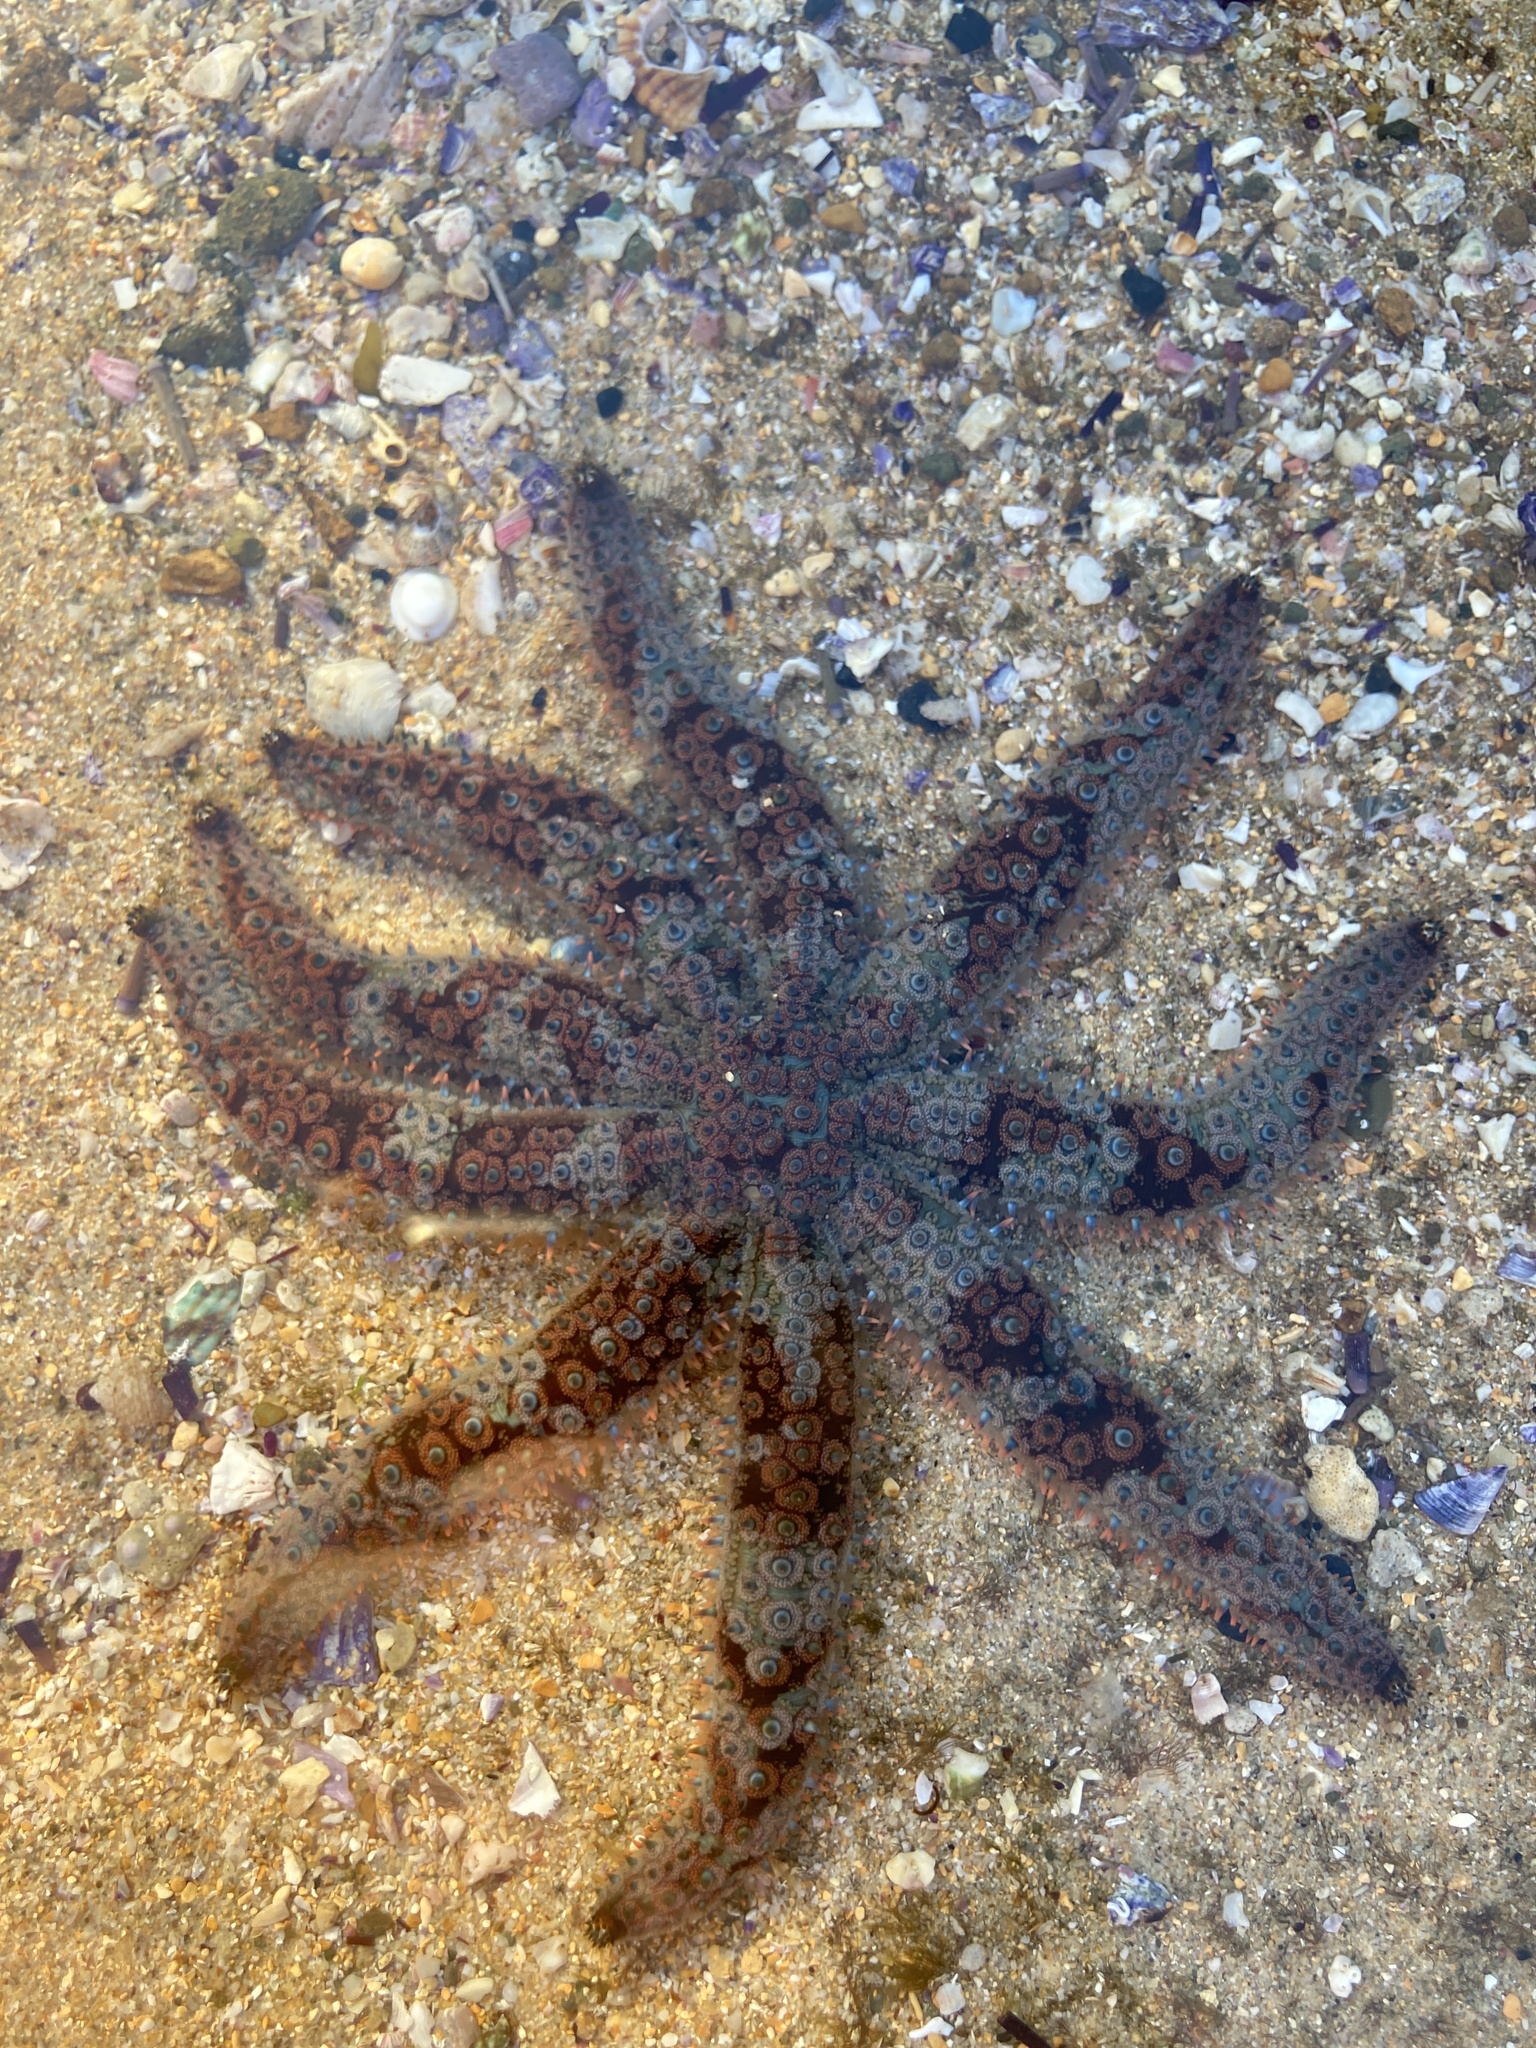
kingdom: Animalia
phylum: Echinodermata
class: Asteroidea
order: Forcipulatida
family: Asteriidae
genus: Coscinasterias
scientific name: Coscinasterias muricata
